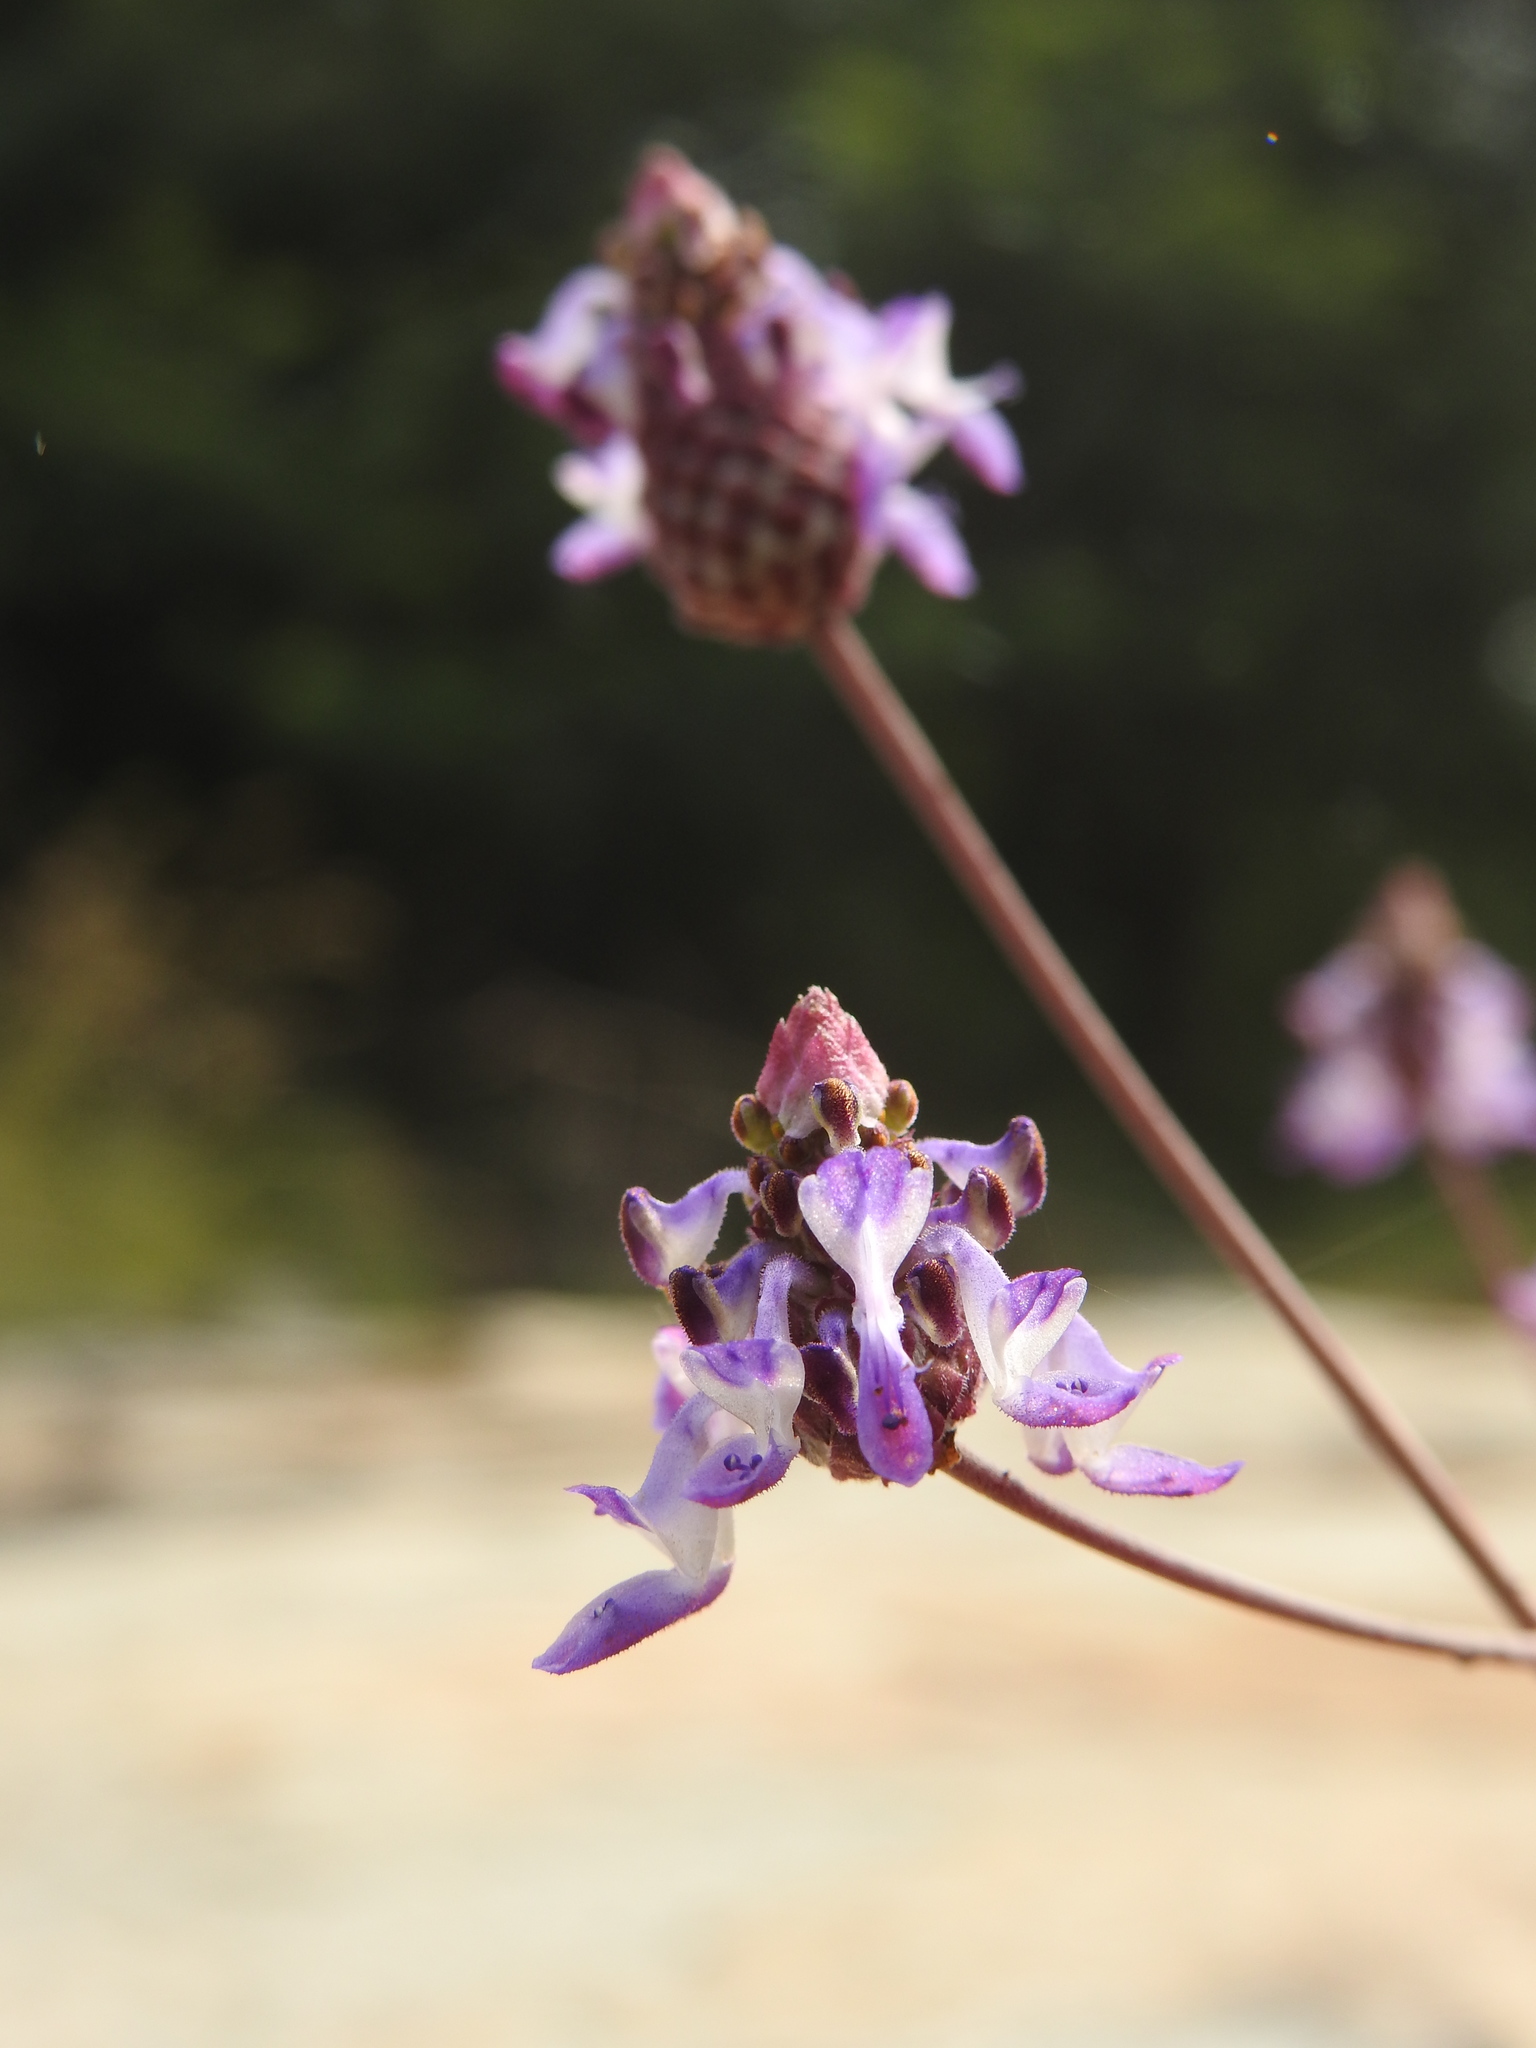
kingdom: Plantae
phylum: Tracheophyta
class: Magnoliopsida
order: Lamiales
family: Lamiaceae
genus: Coleus
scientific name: Coleus strobilifer
